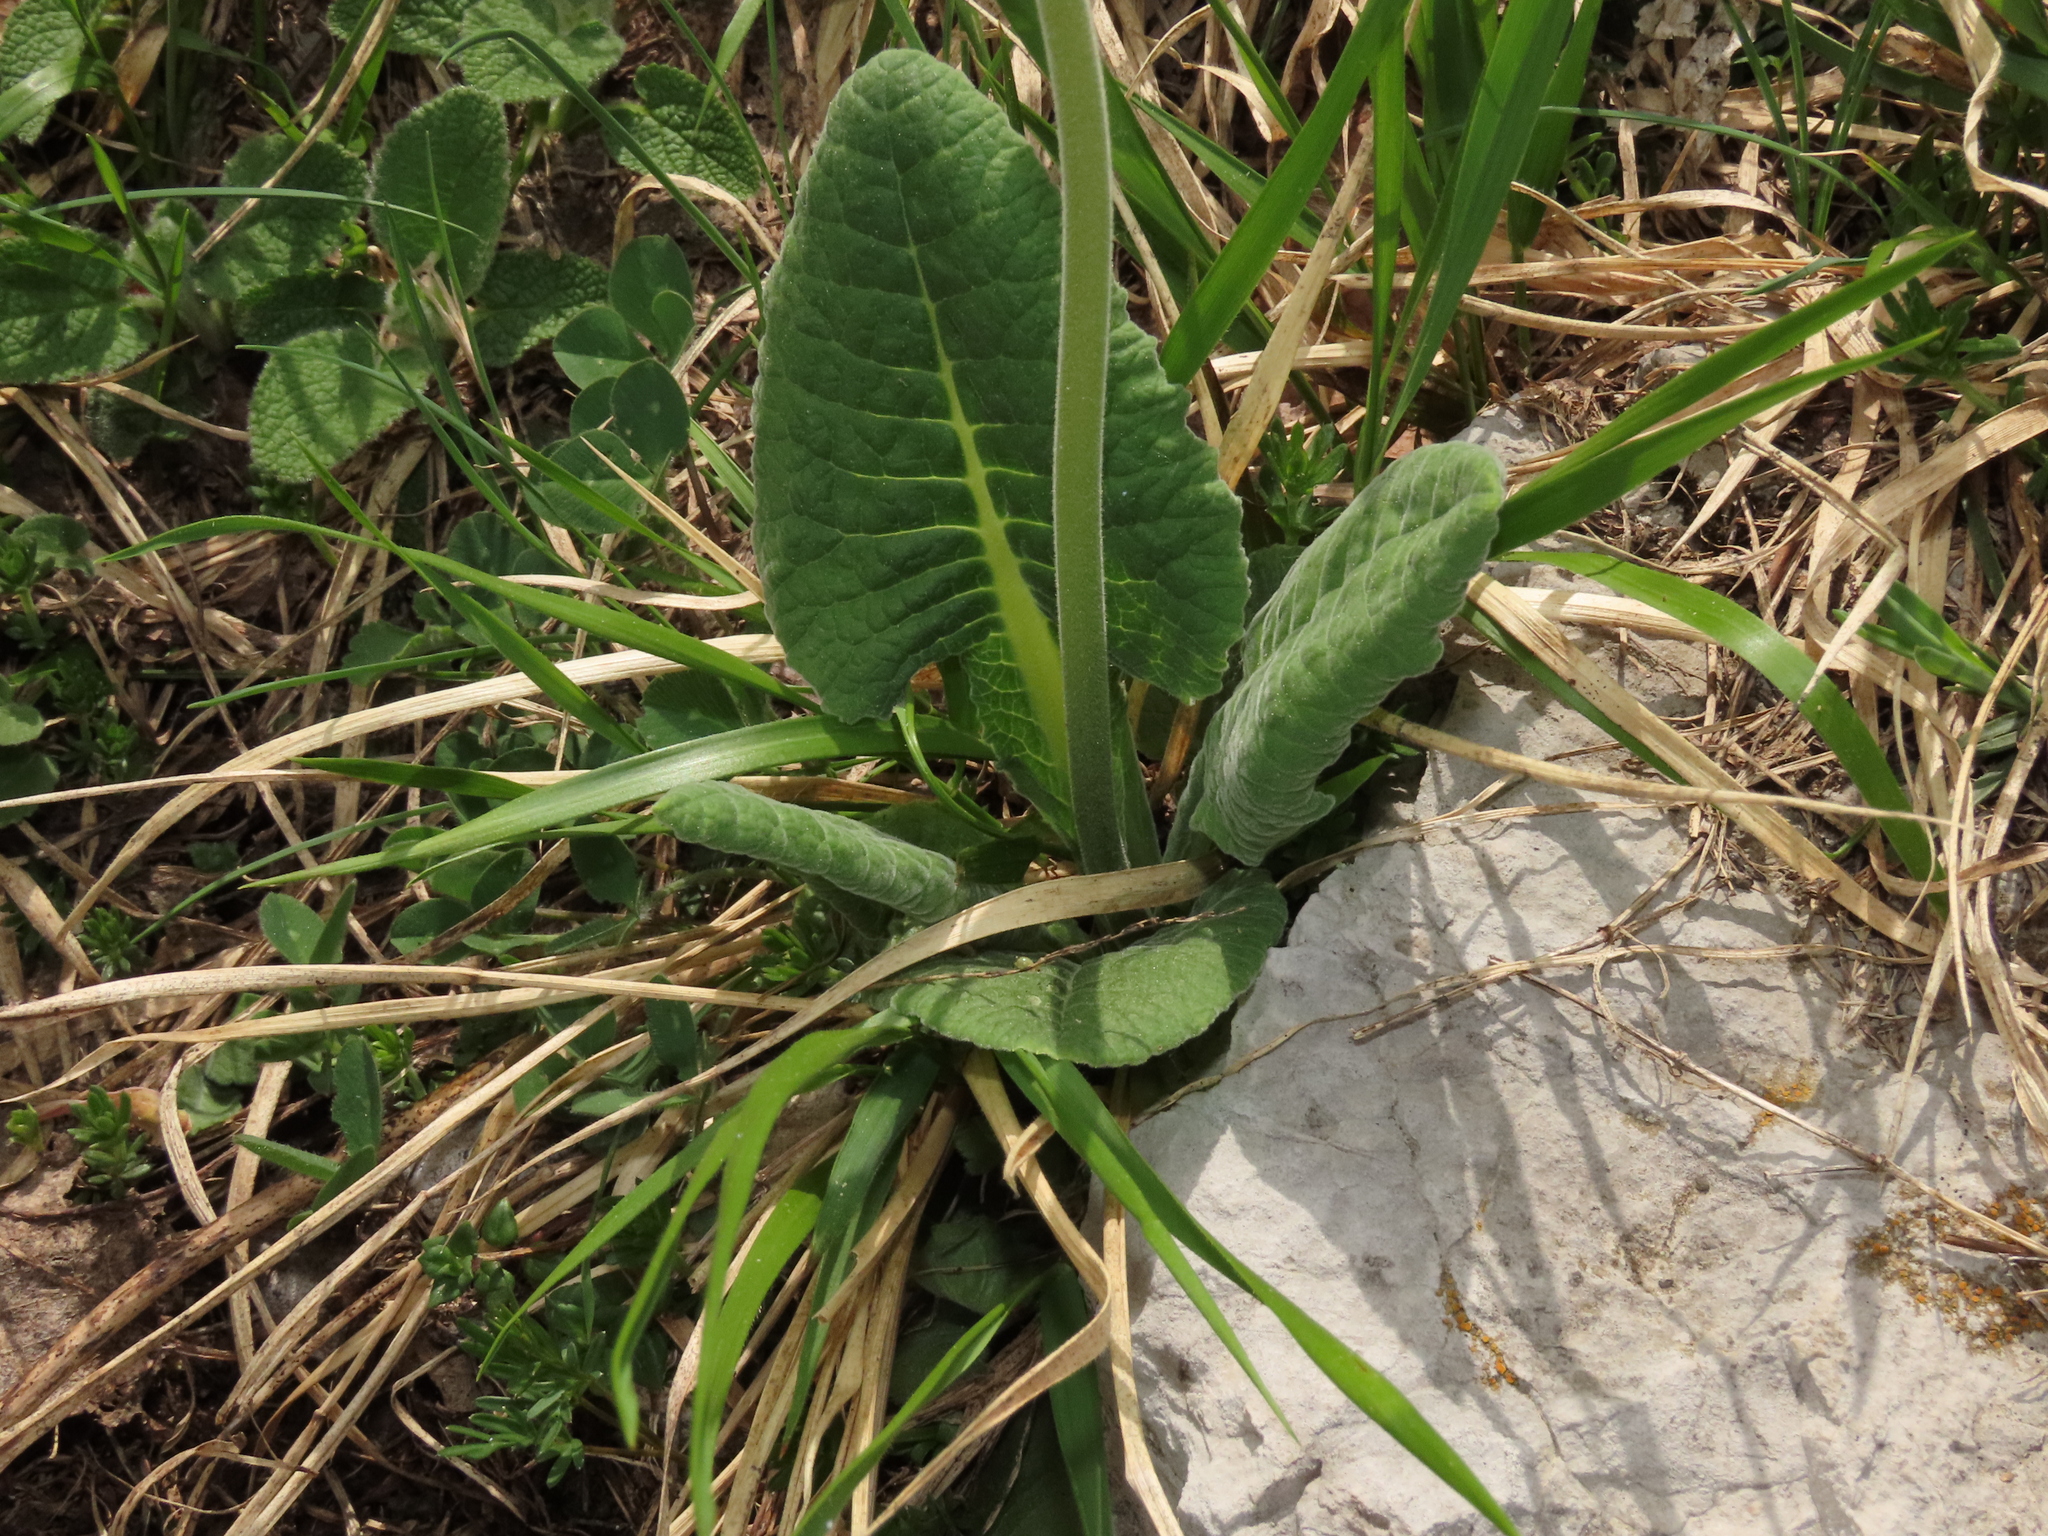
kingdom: Plantae
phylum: Tracheophyta
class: Magnoliopsida
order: Ericales
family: Primulaceae
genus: Primula
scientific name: Primula veris
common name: Cowslip
